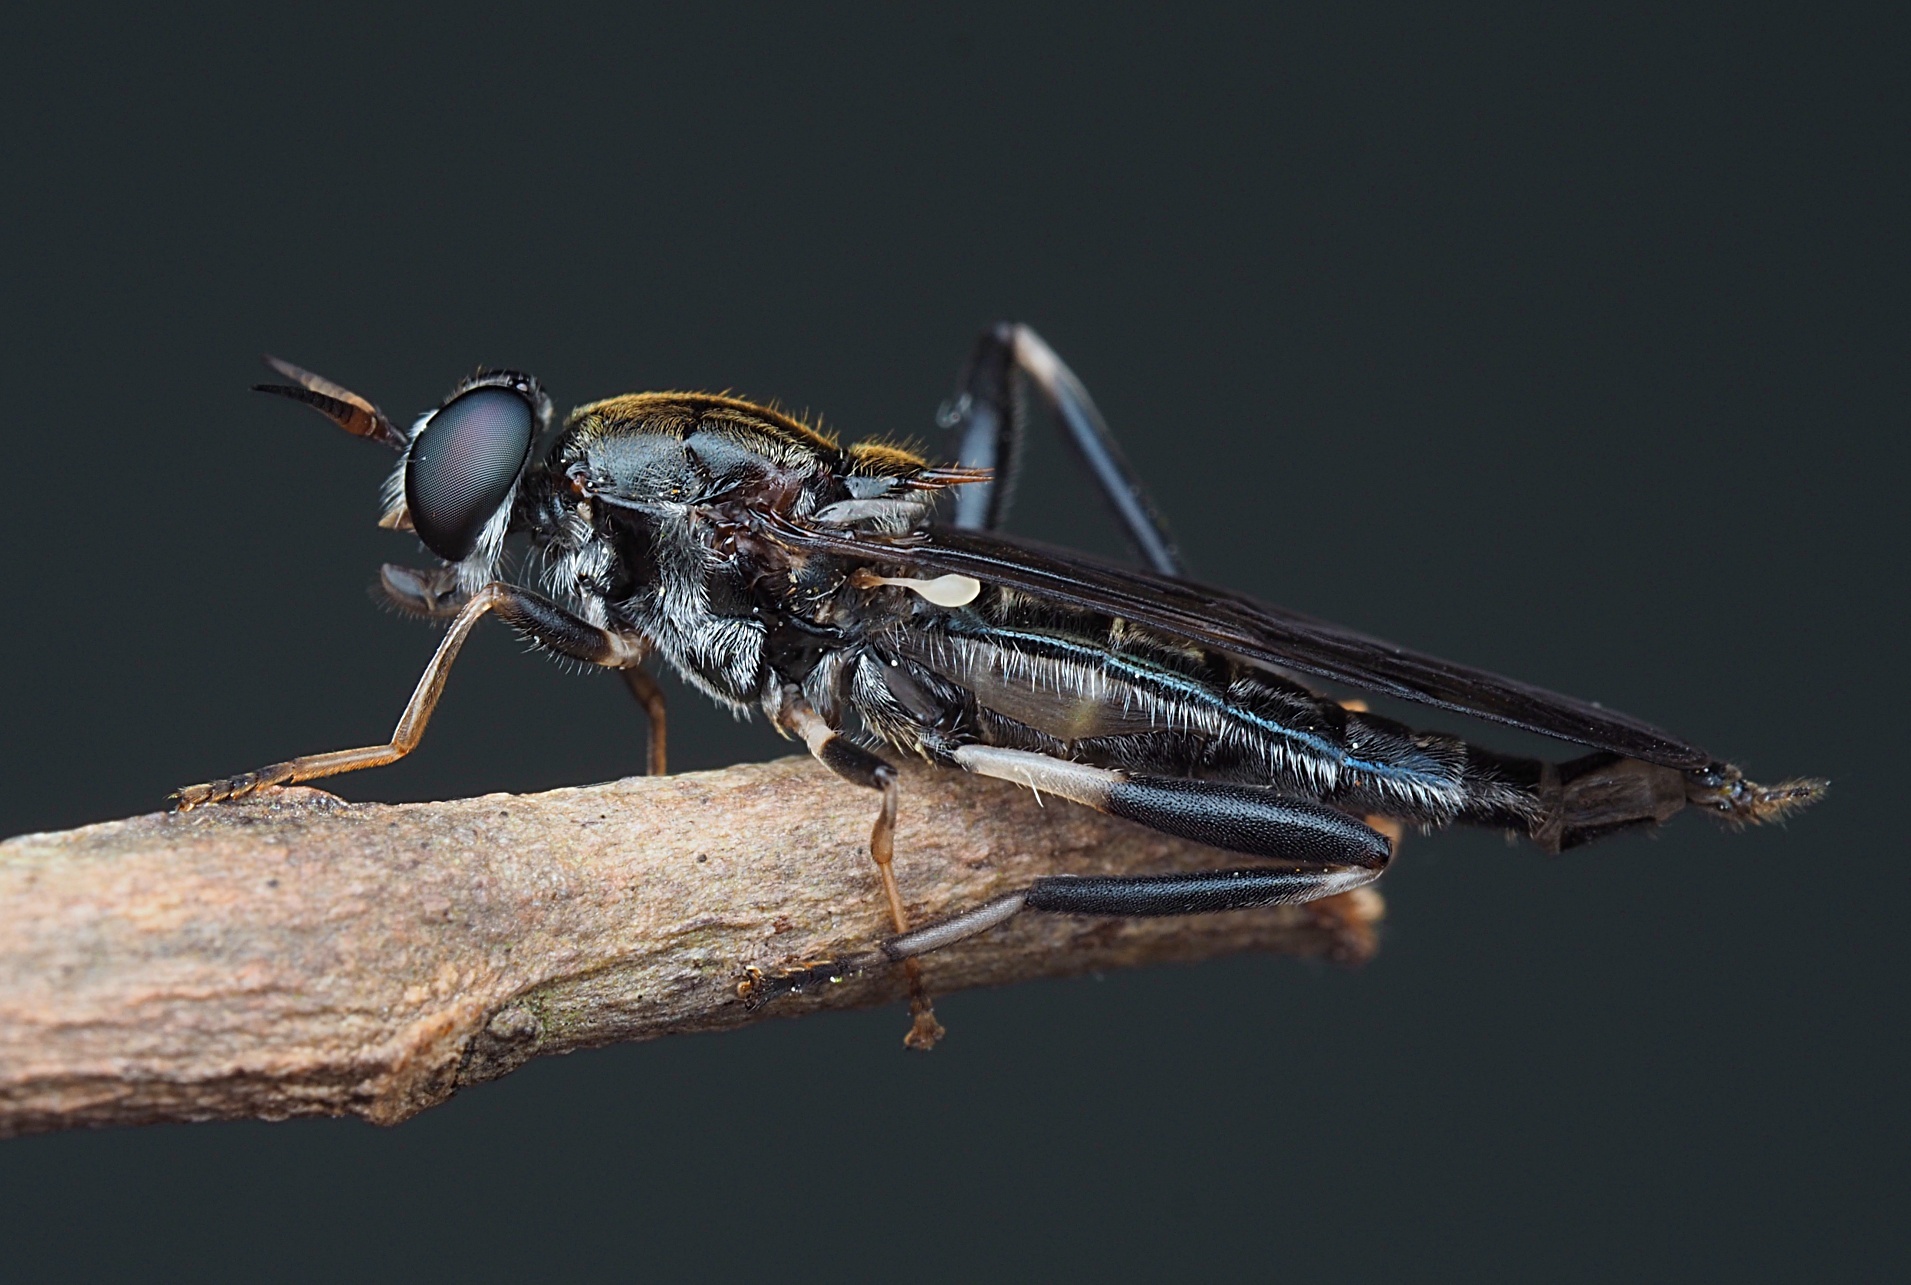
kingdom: Animalia
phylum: Arthropoda
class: Insecta
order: Diptera
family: Stratiomyidae
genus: Exaireta
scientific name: Exaireta spinigera
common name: Blue soldier fly
